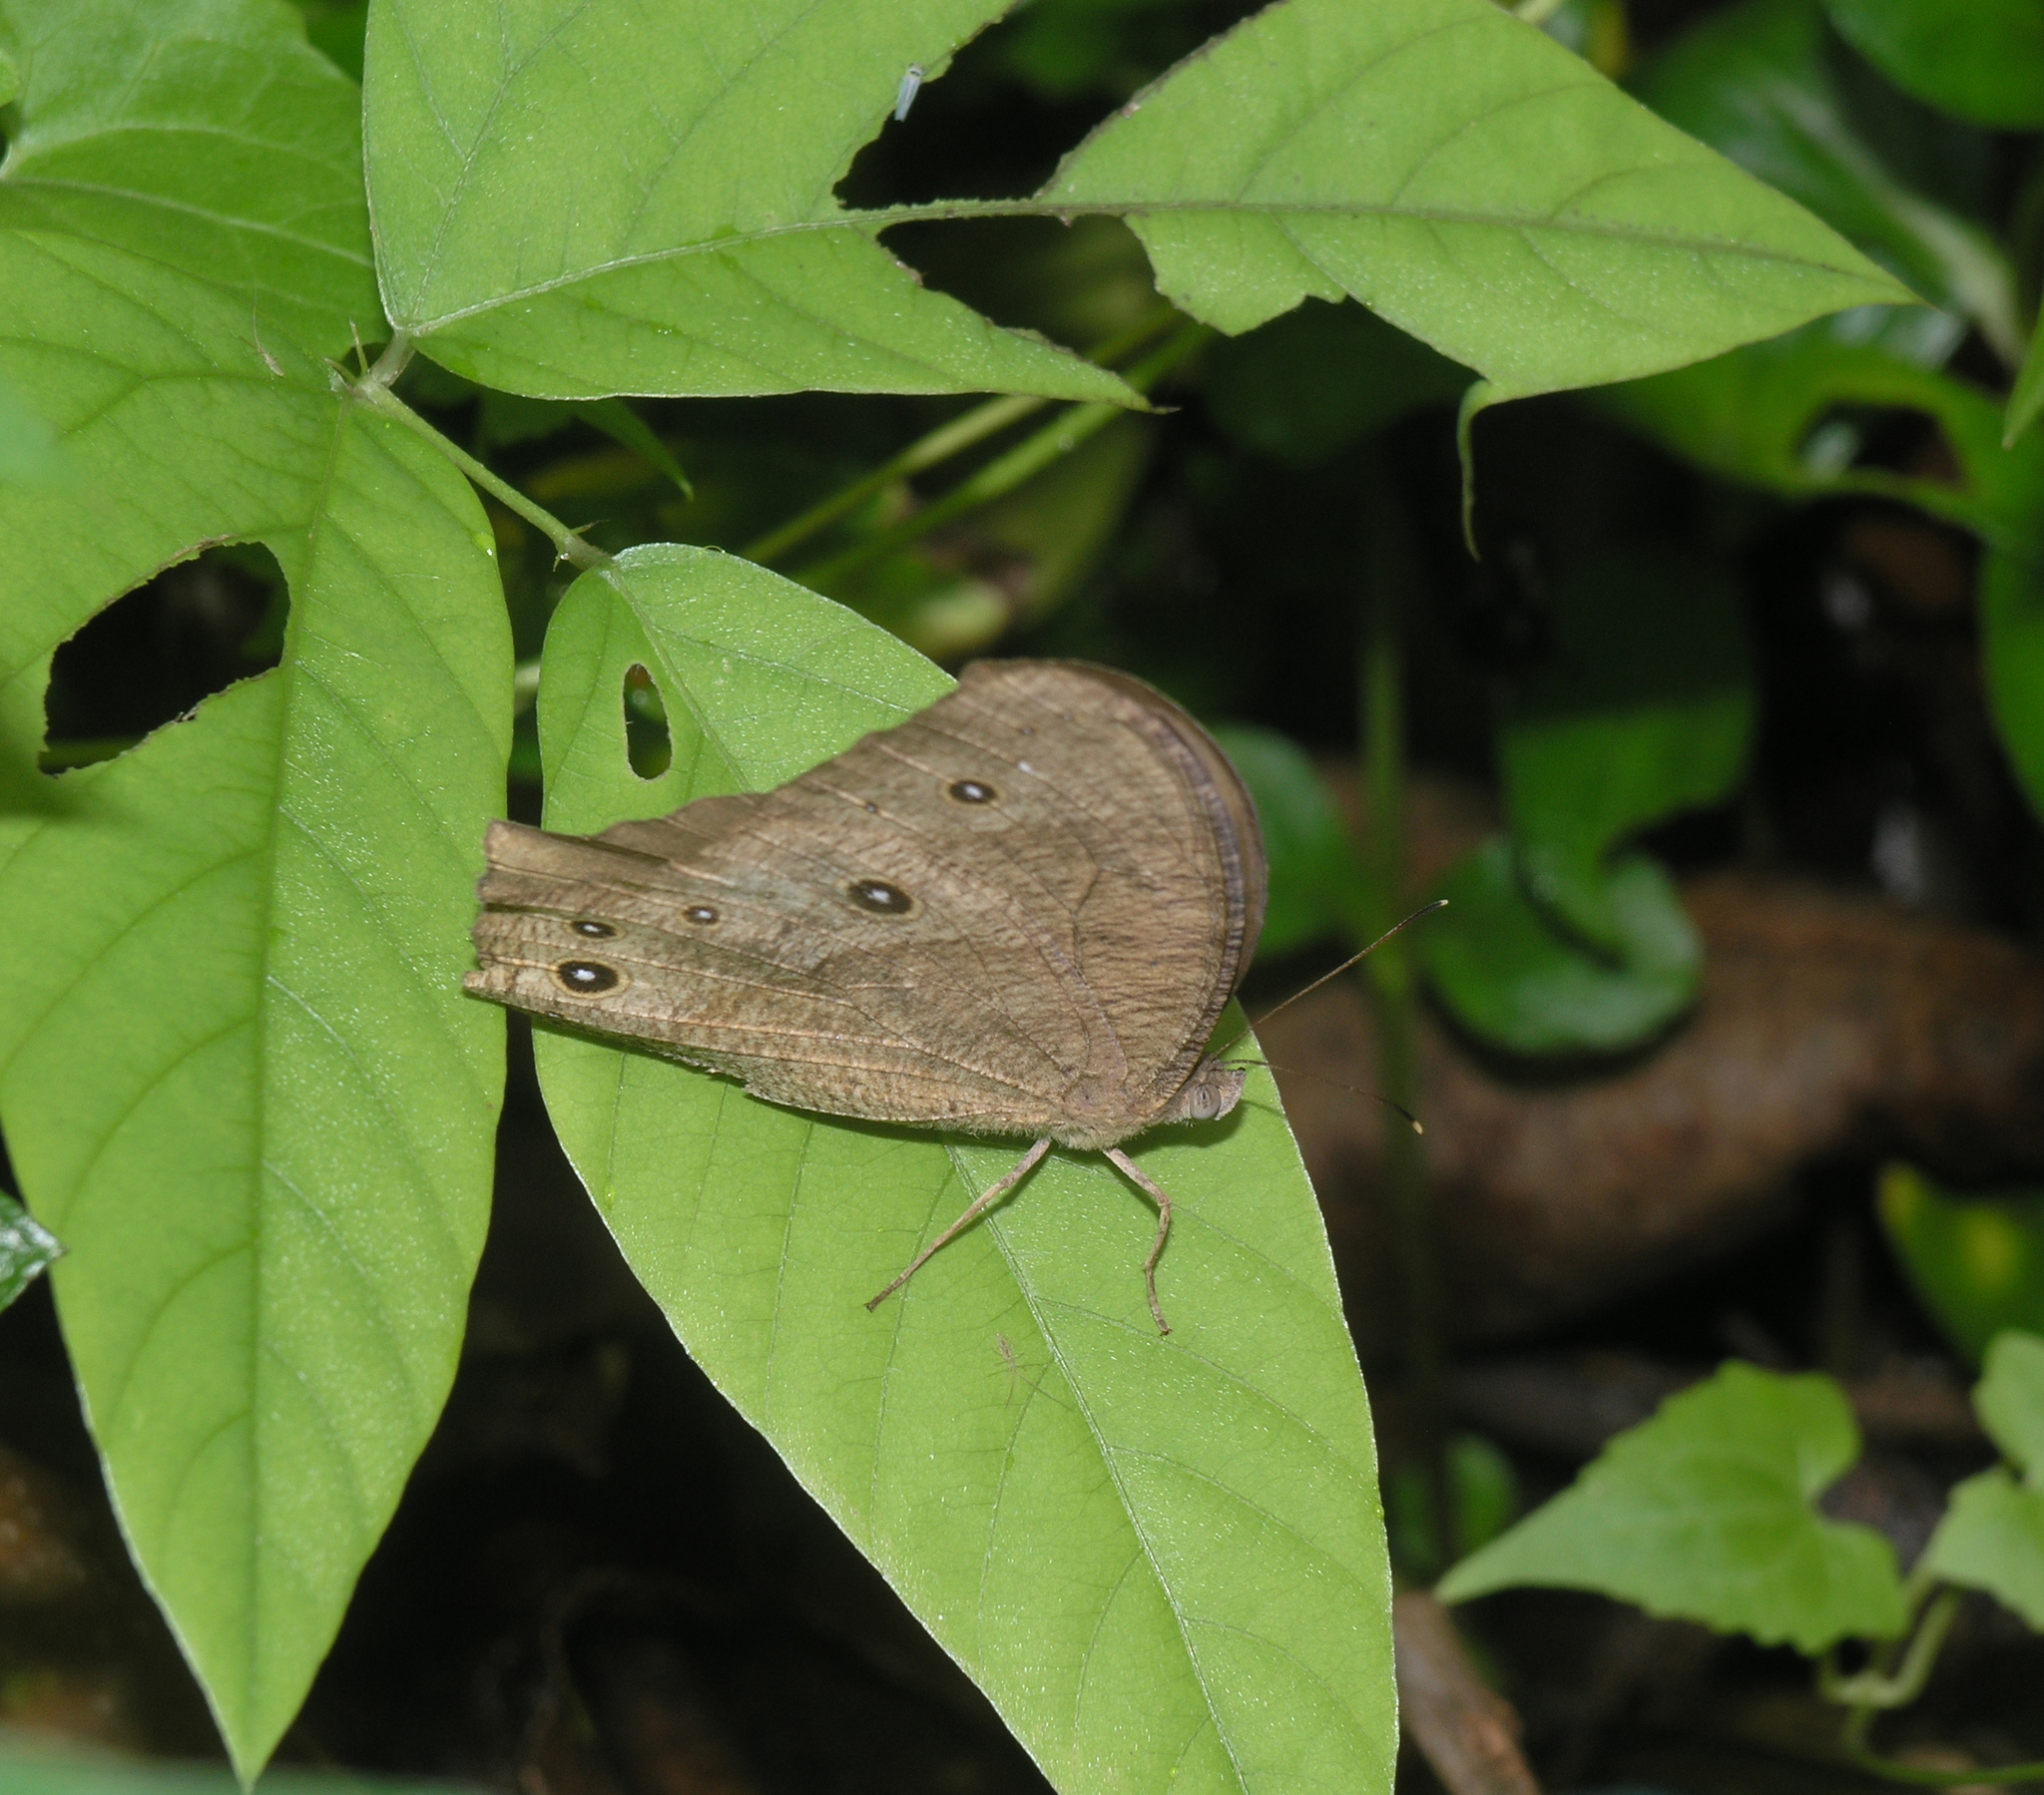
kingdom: Animalia
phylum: Arthropoda
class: Insecta
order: Lepidoptera
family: Nymphalidae
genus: Melanitis
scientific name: Melanitis leda
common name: Twilight brown
